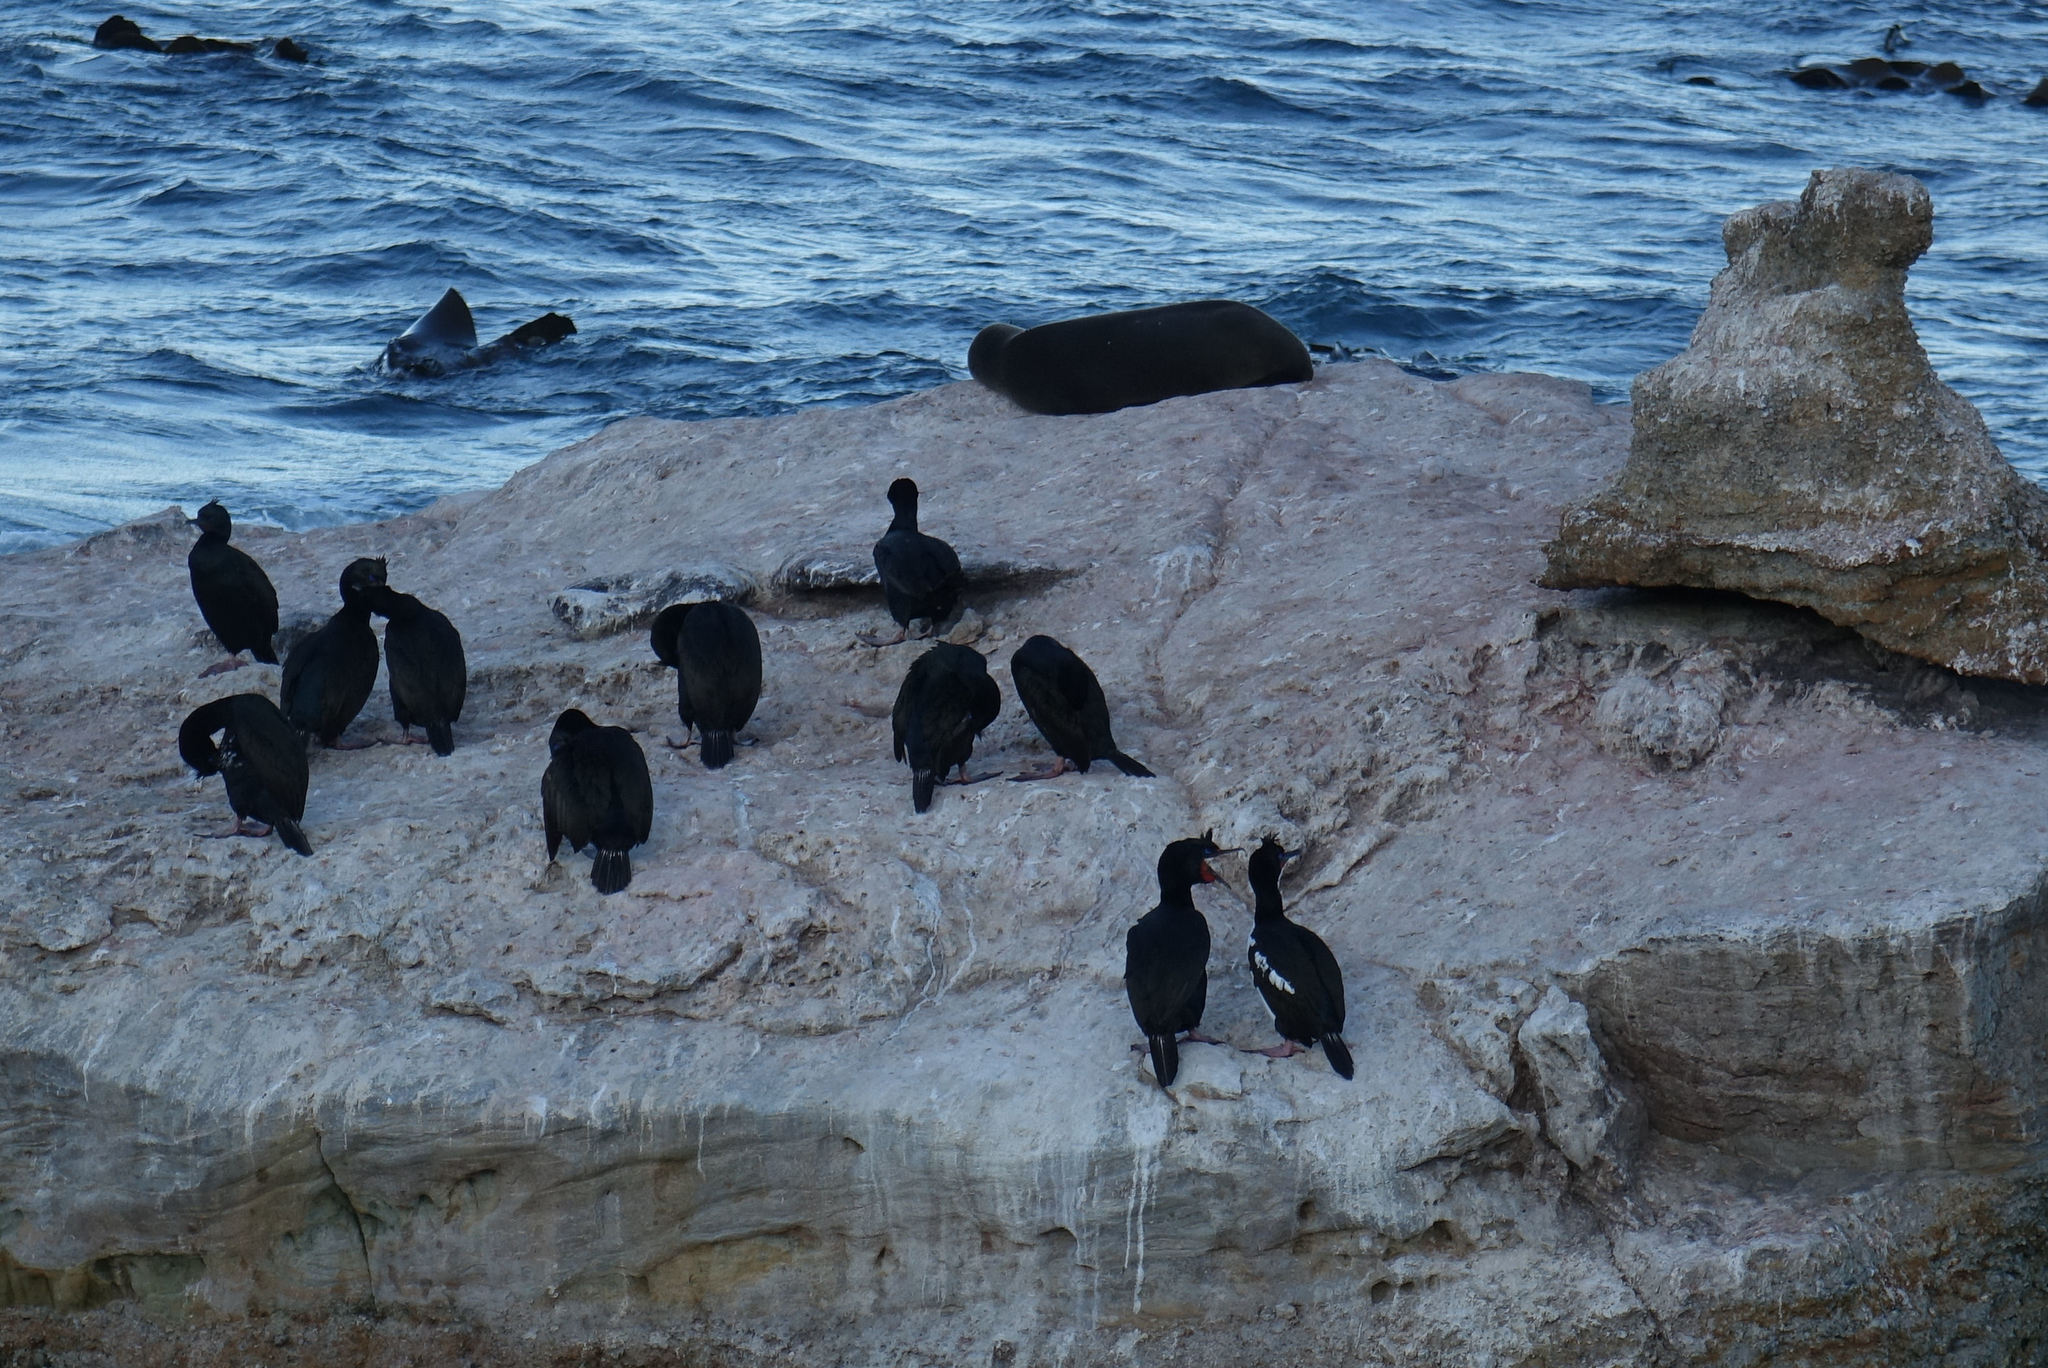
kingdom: Animalia
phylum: Chordata
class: Aves
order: Suliformes
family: Phalacrocoracidae
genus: Leucocarbo
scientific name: Leucocarbo chalconotus
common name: Stewart shag
